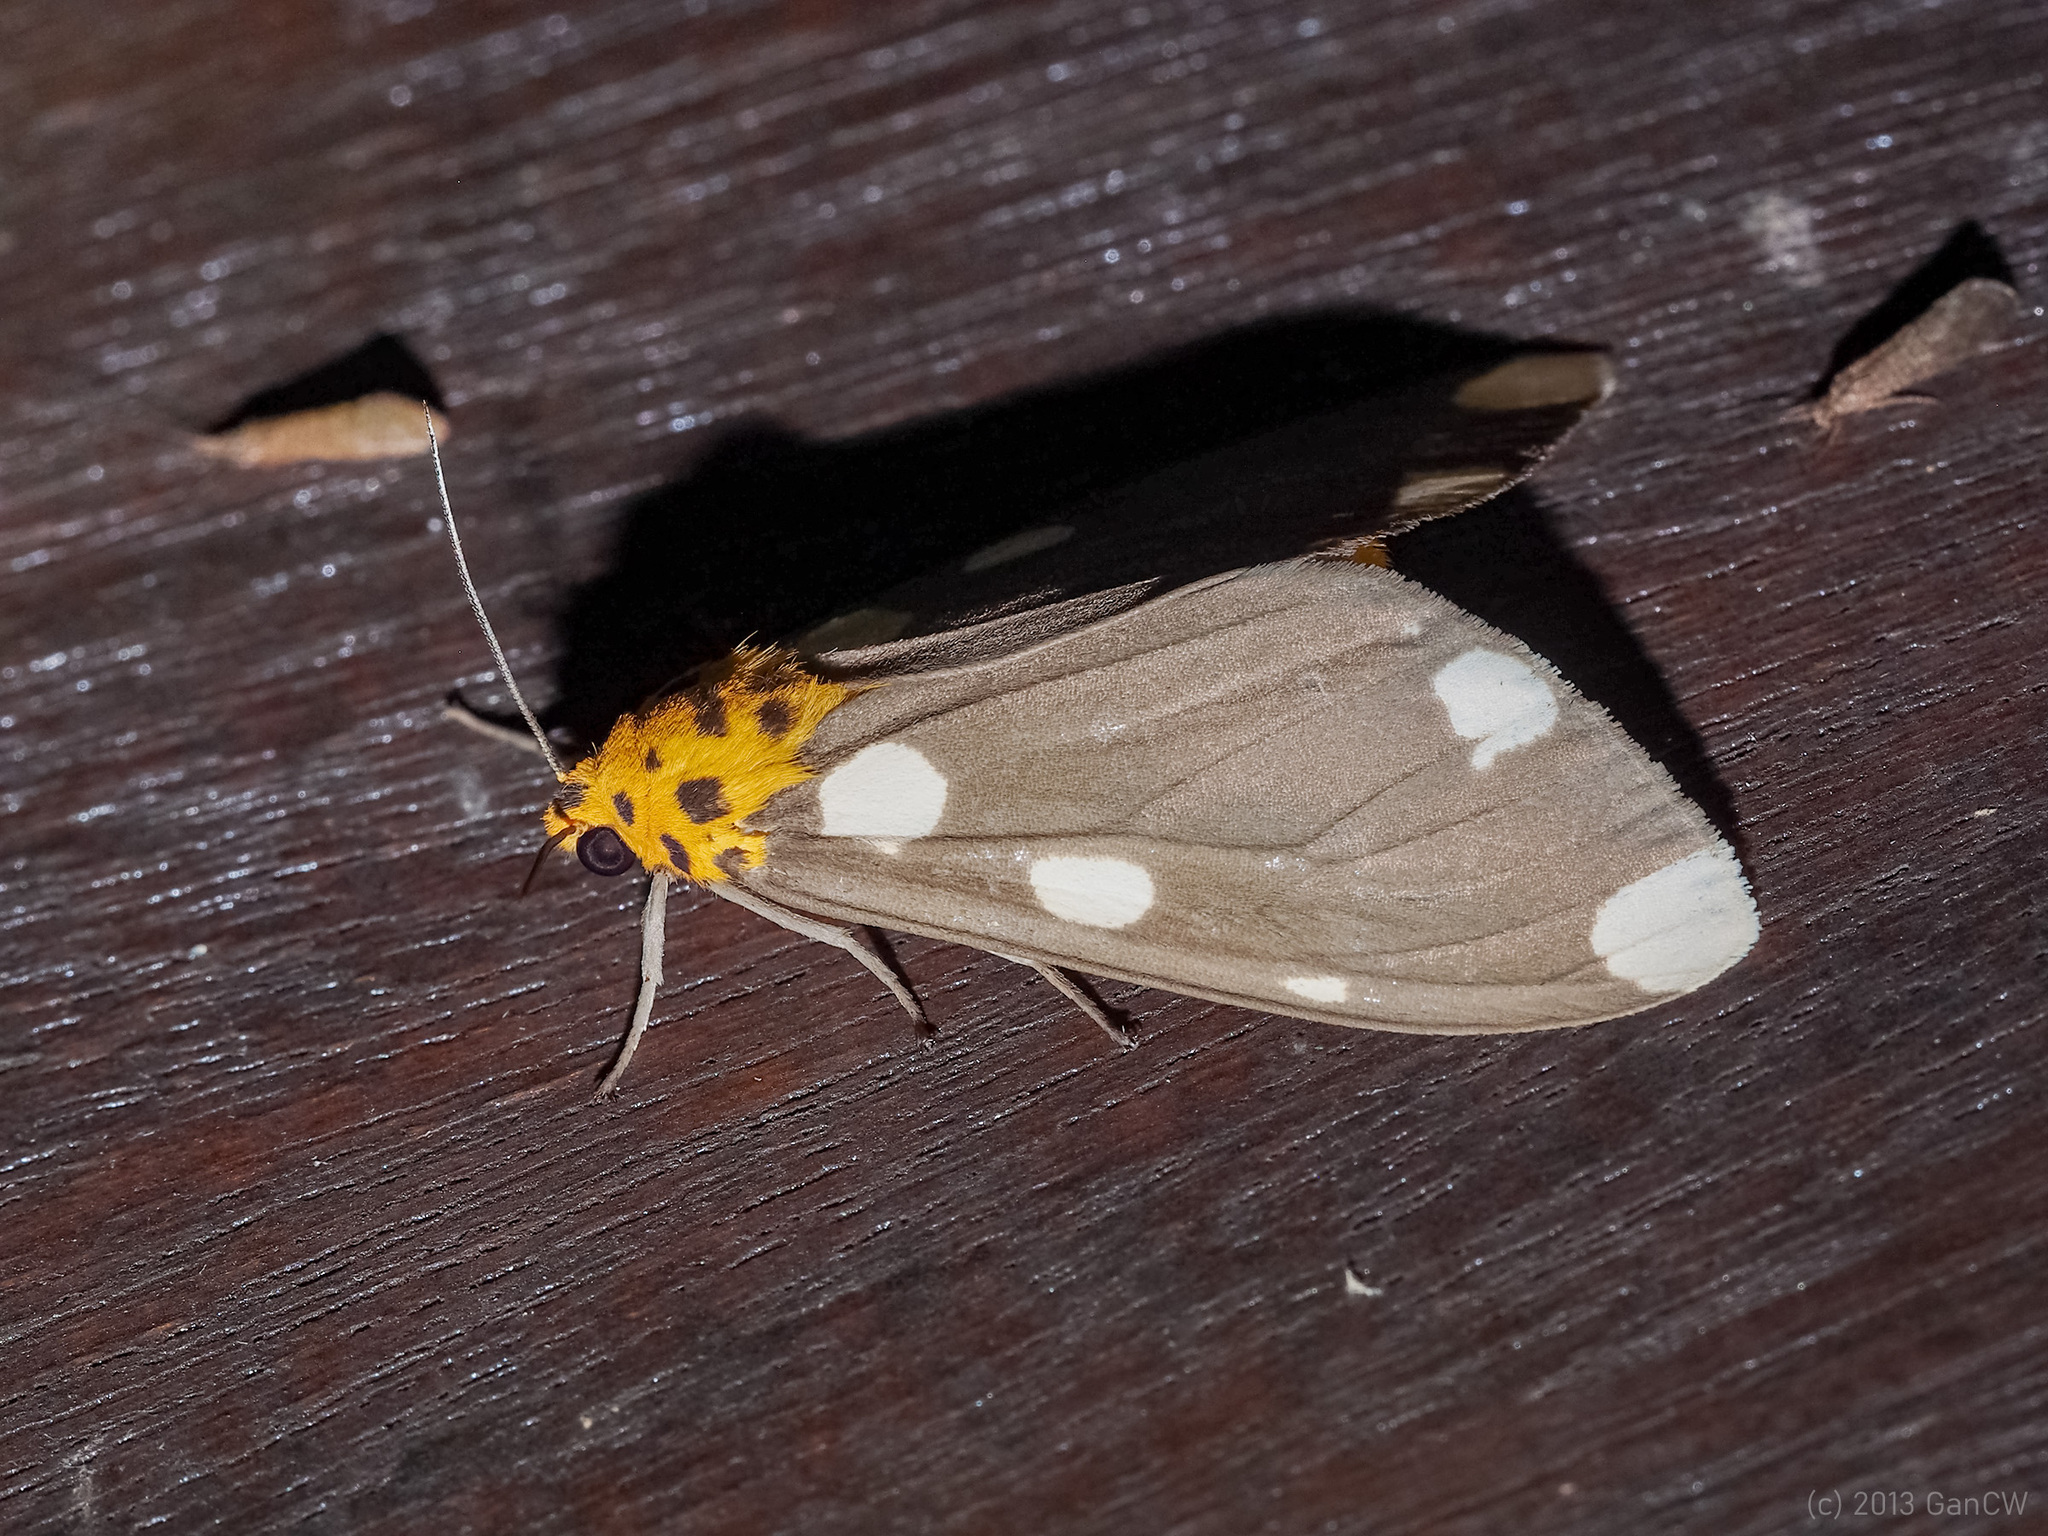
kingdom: Animalia
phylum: Arthropoda
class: Insecta
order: Lepidoptera
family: Erebidae
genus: Aethalida
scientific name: Aethalida borneana
